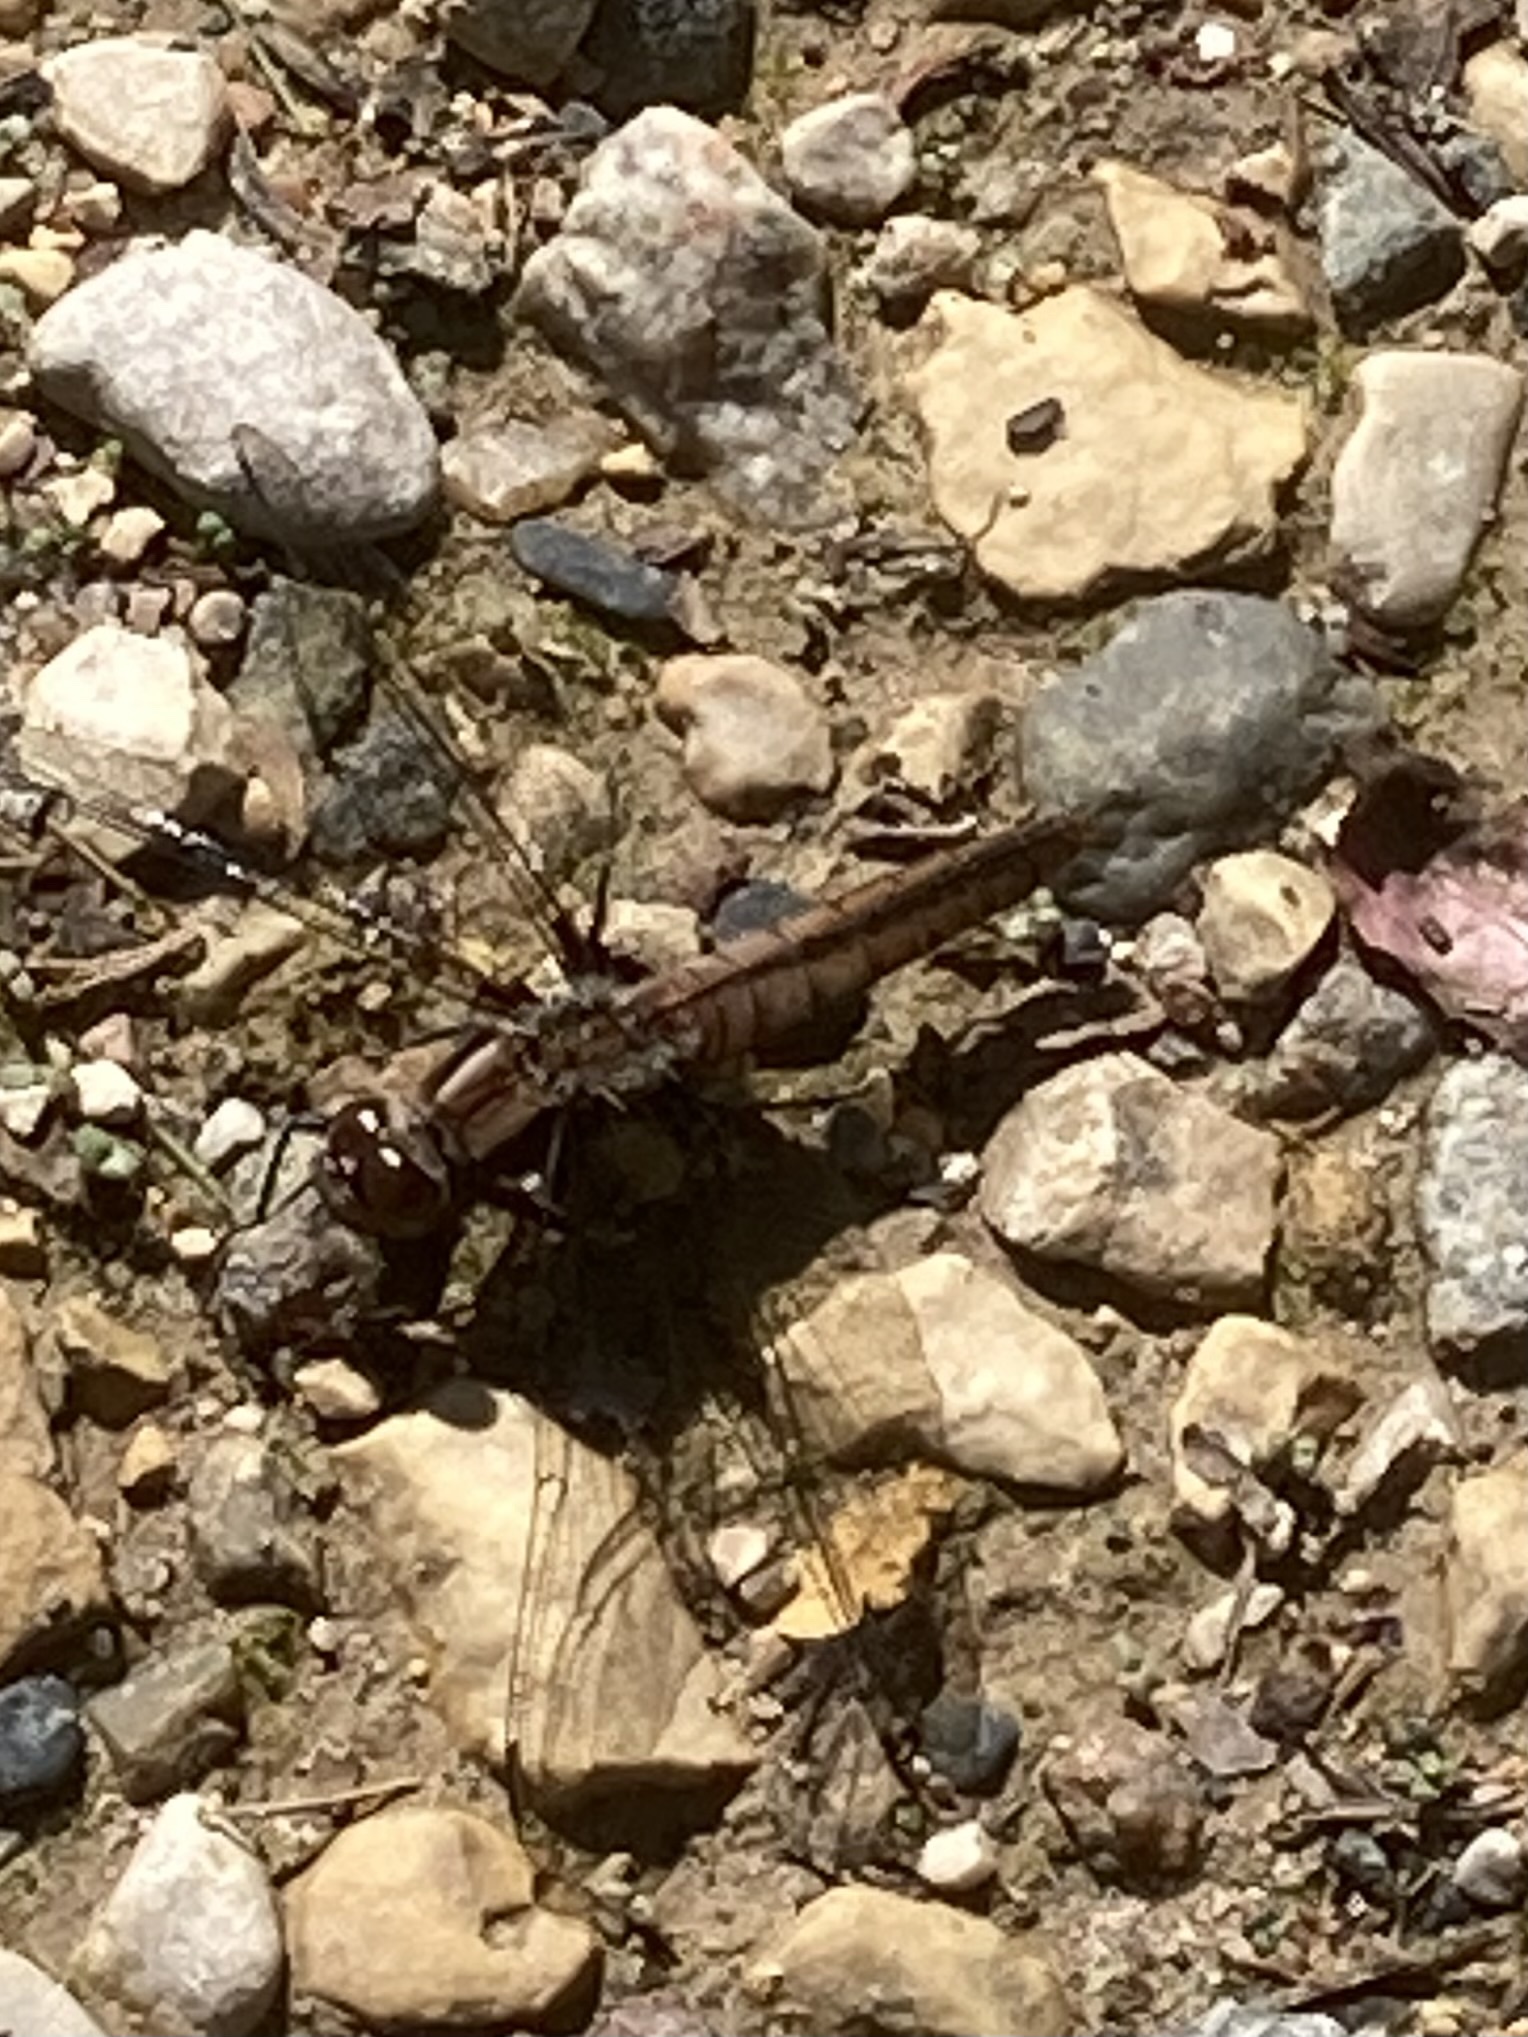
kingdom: Animalia
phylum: Arthropoda
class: Insecta
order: Odonata
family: Libellulidae
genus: Ladona
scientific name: Ladona julia
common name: Chalk-fronted corporal
